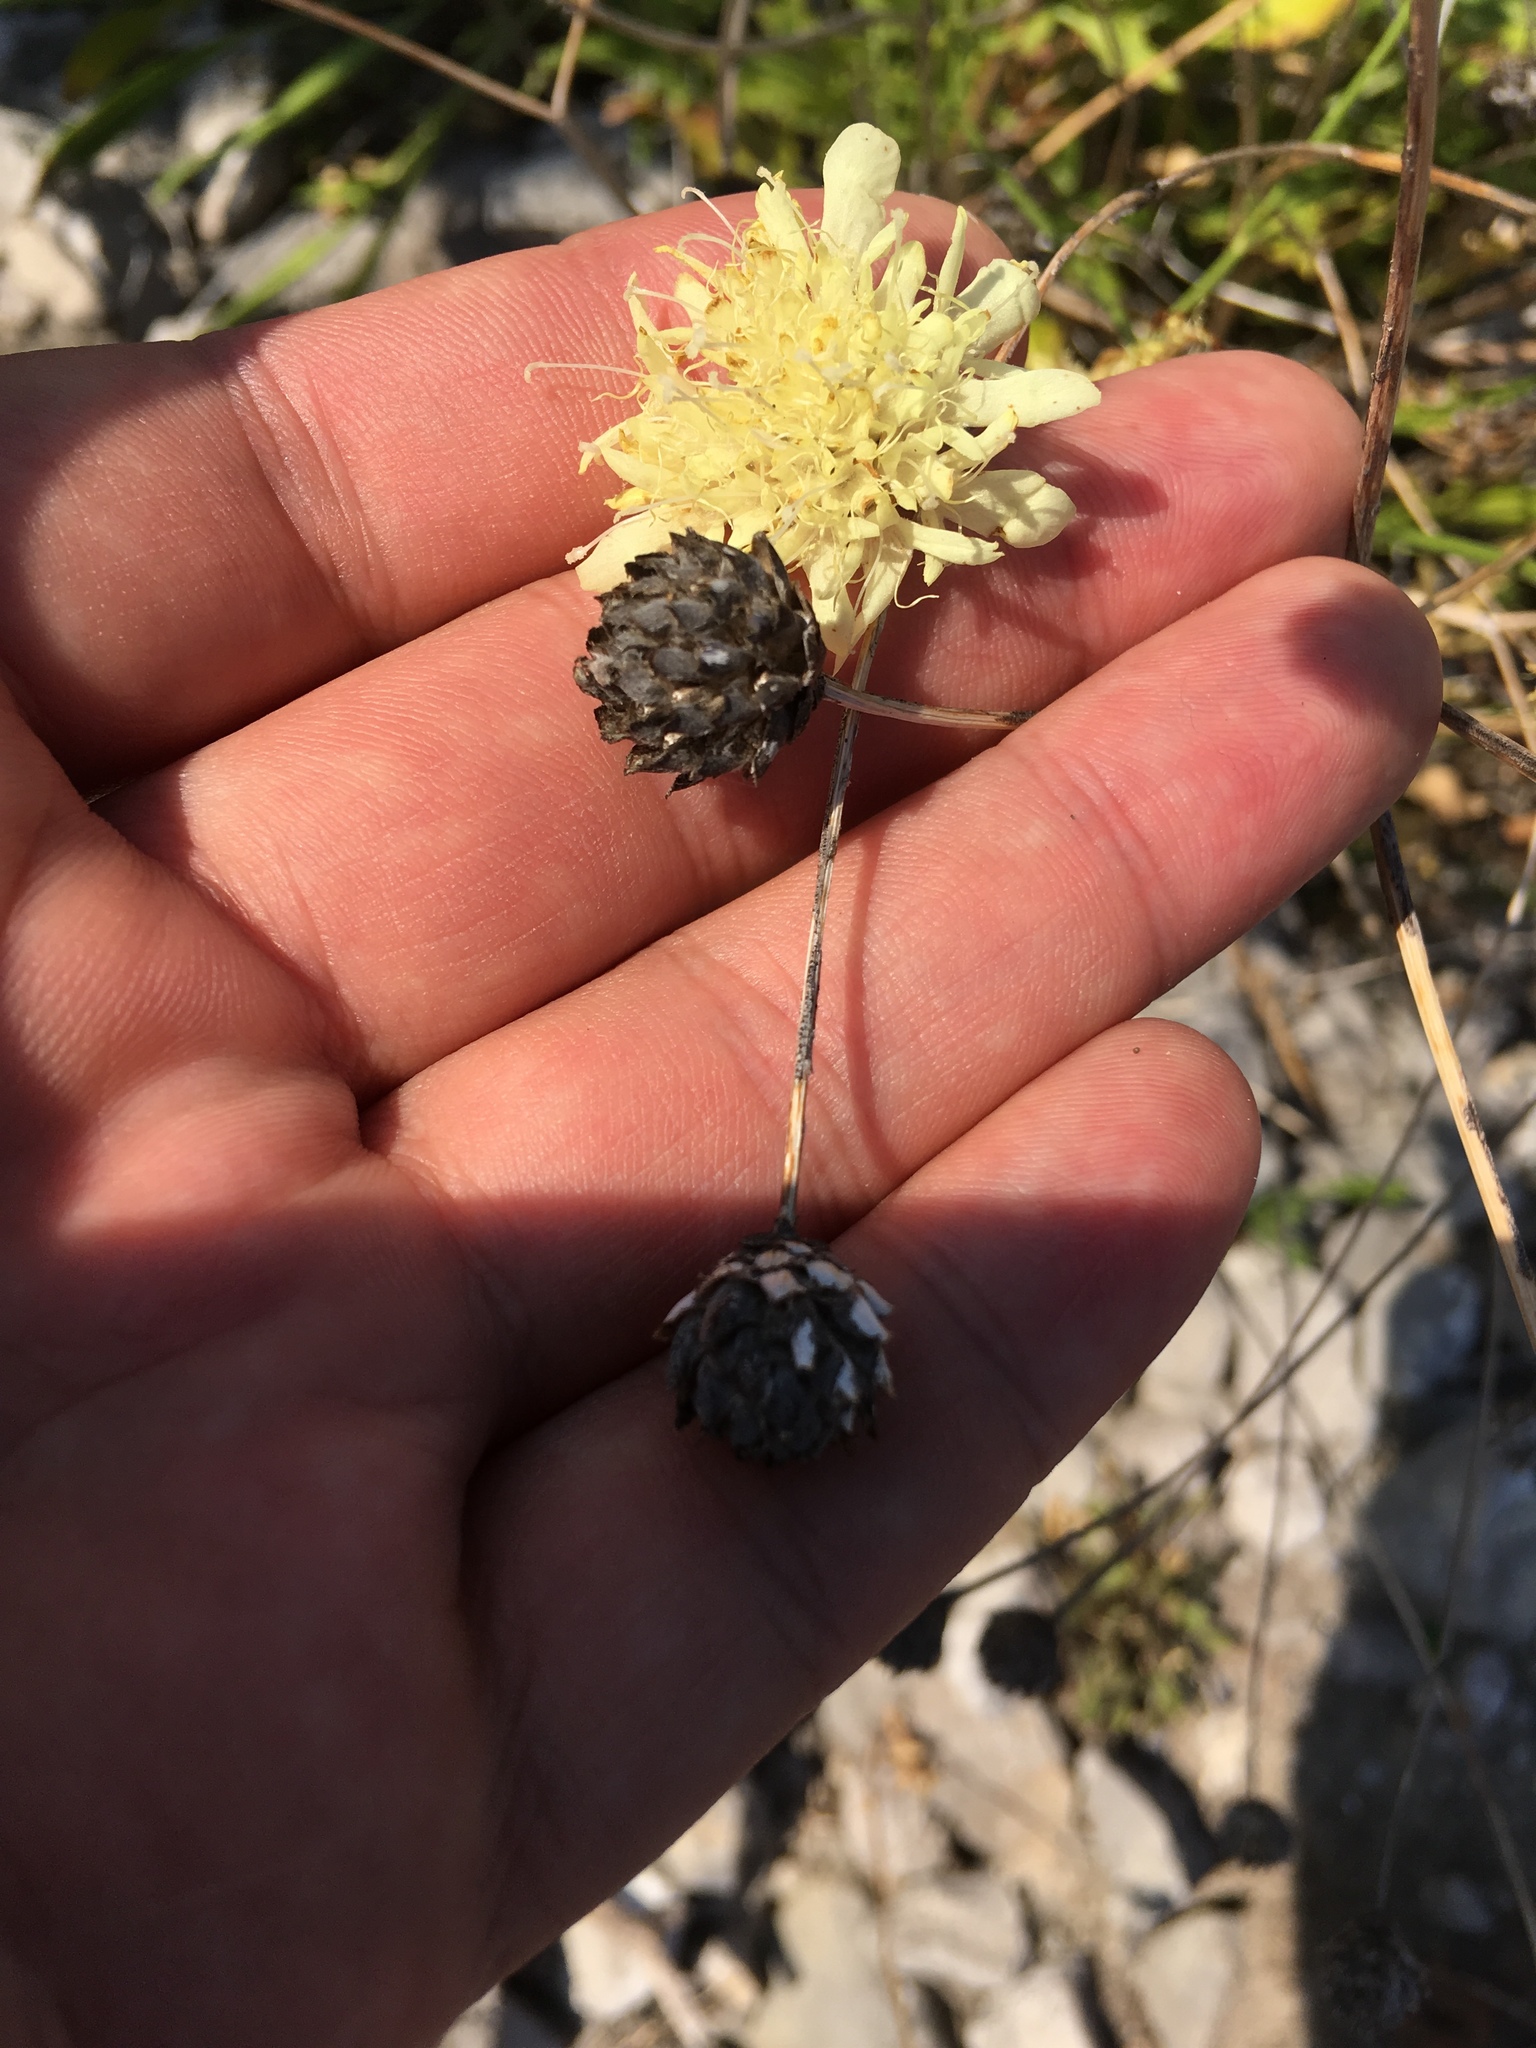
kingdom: Plantae
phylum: Tracheophyta
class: Magnoliopsida
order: Dipsacales
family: Caprifoliaceae
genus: Cephalaria
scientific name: Cephalaria coriacea
